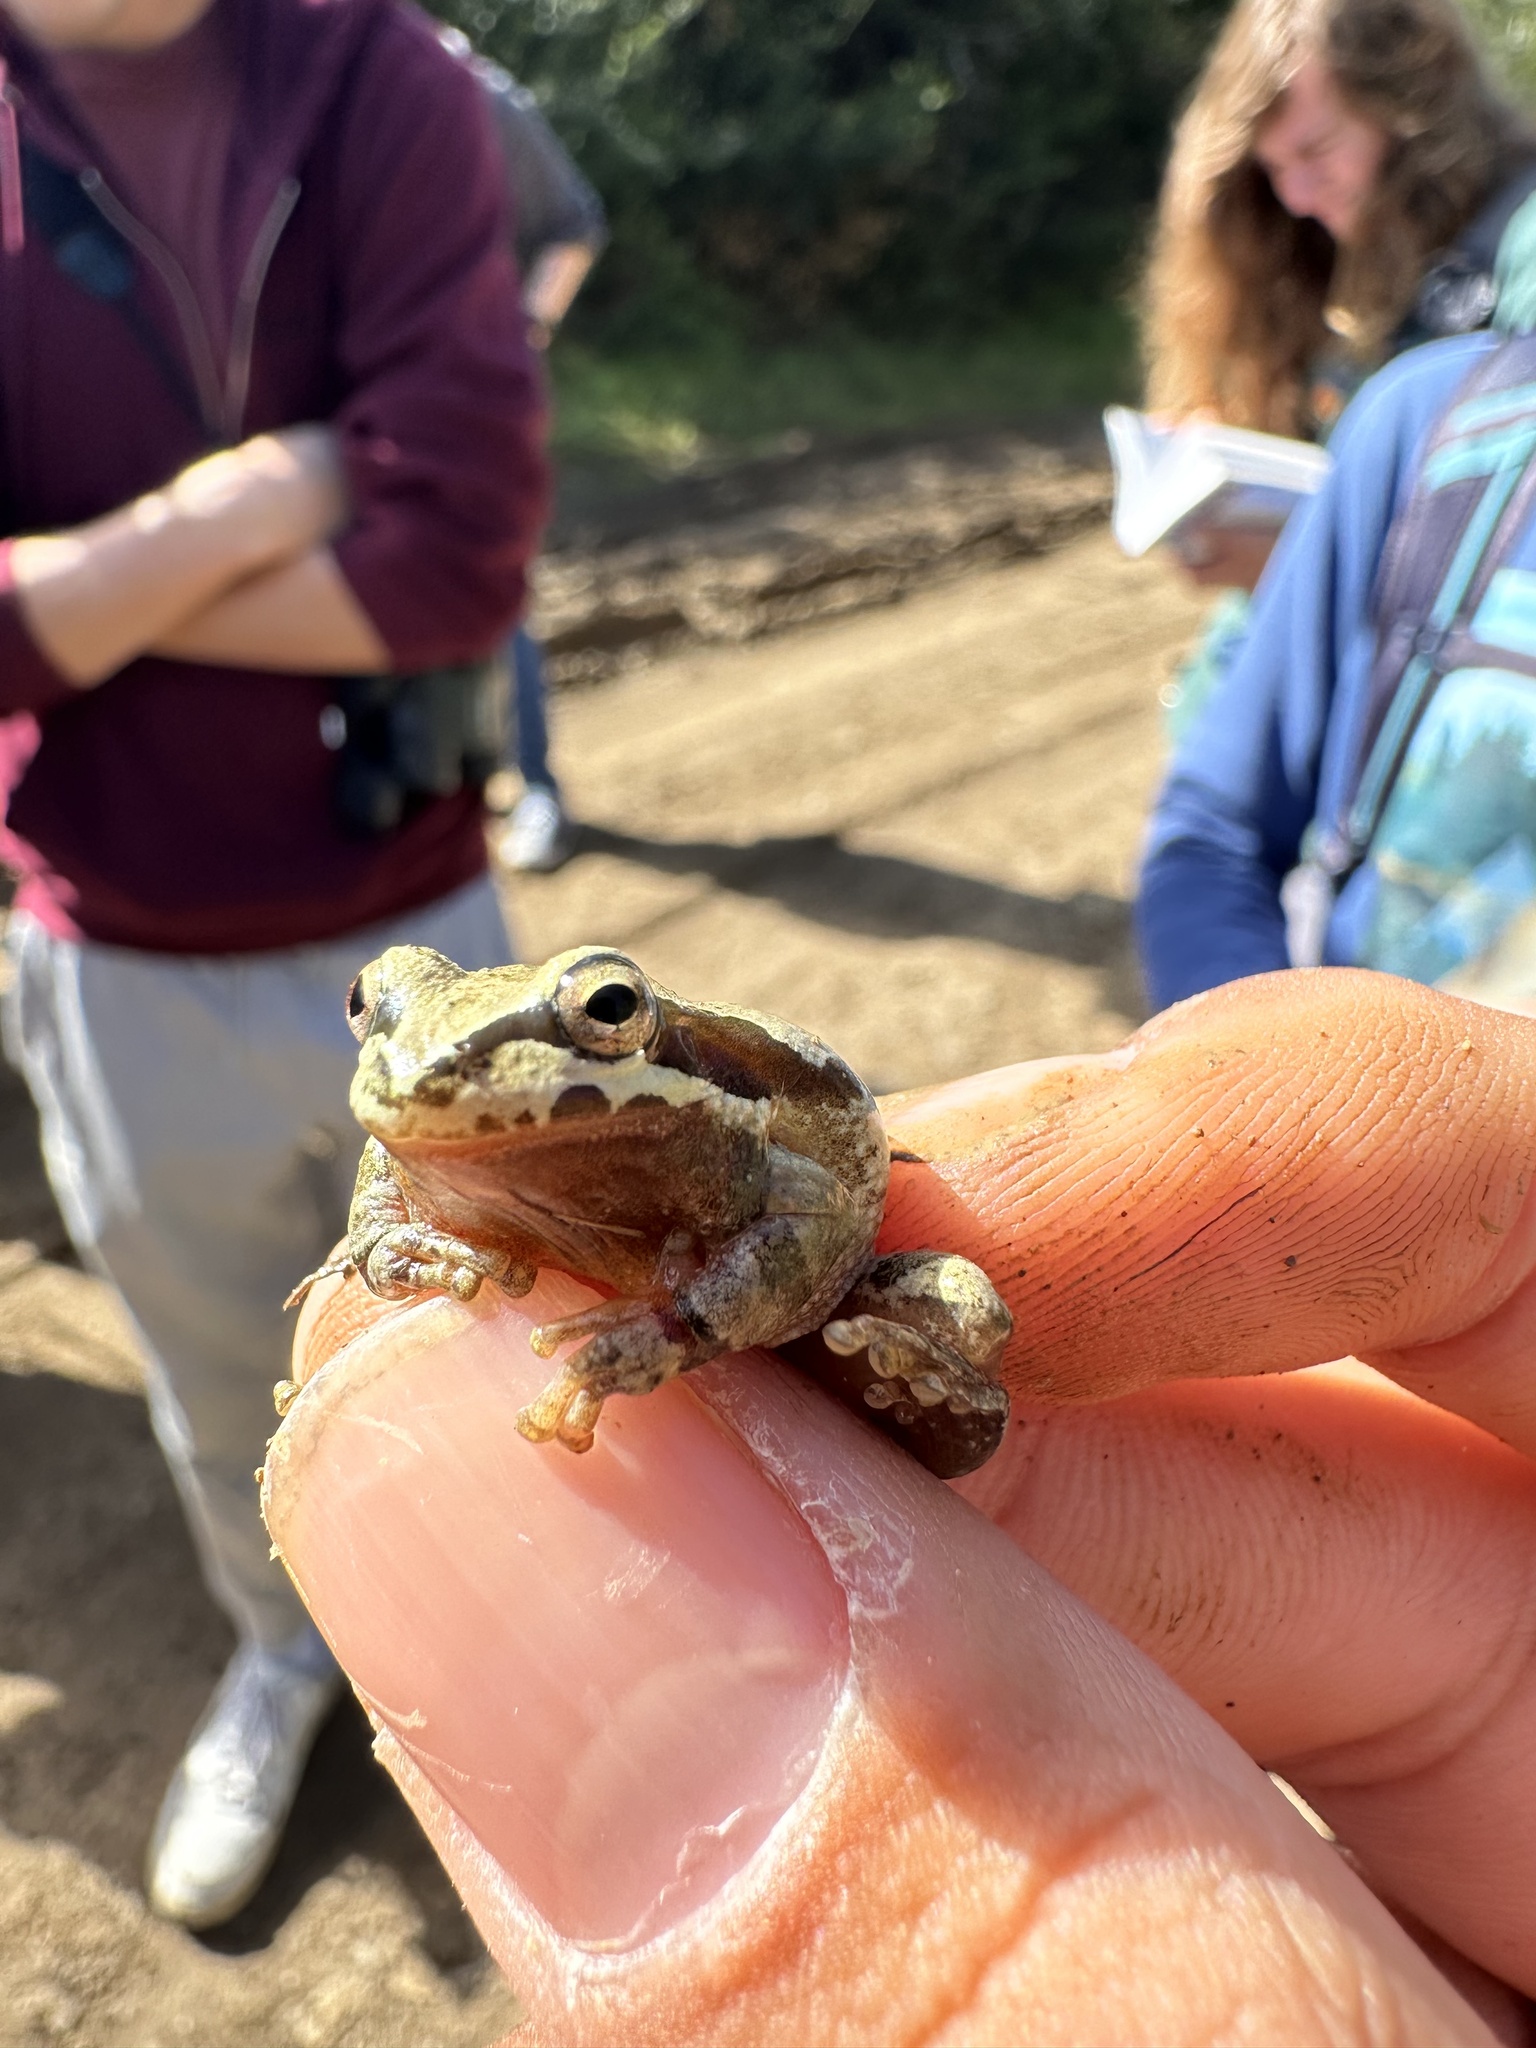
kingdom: Animalia
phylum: Chordata
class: Amphibia
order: Anura
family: Hylidae
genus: Pseudacris
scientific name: Pseudacris regilla
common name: Pacific chorus frog
